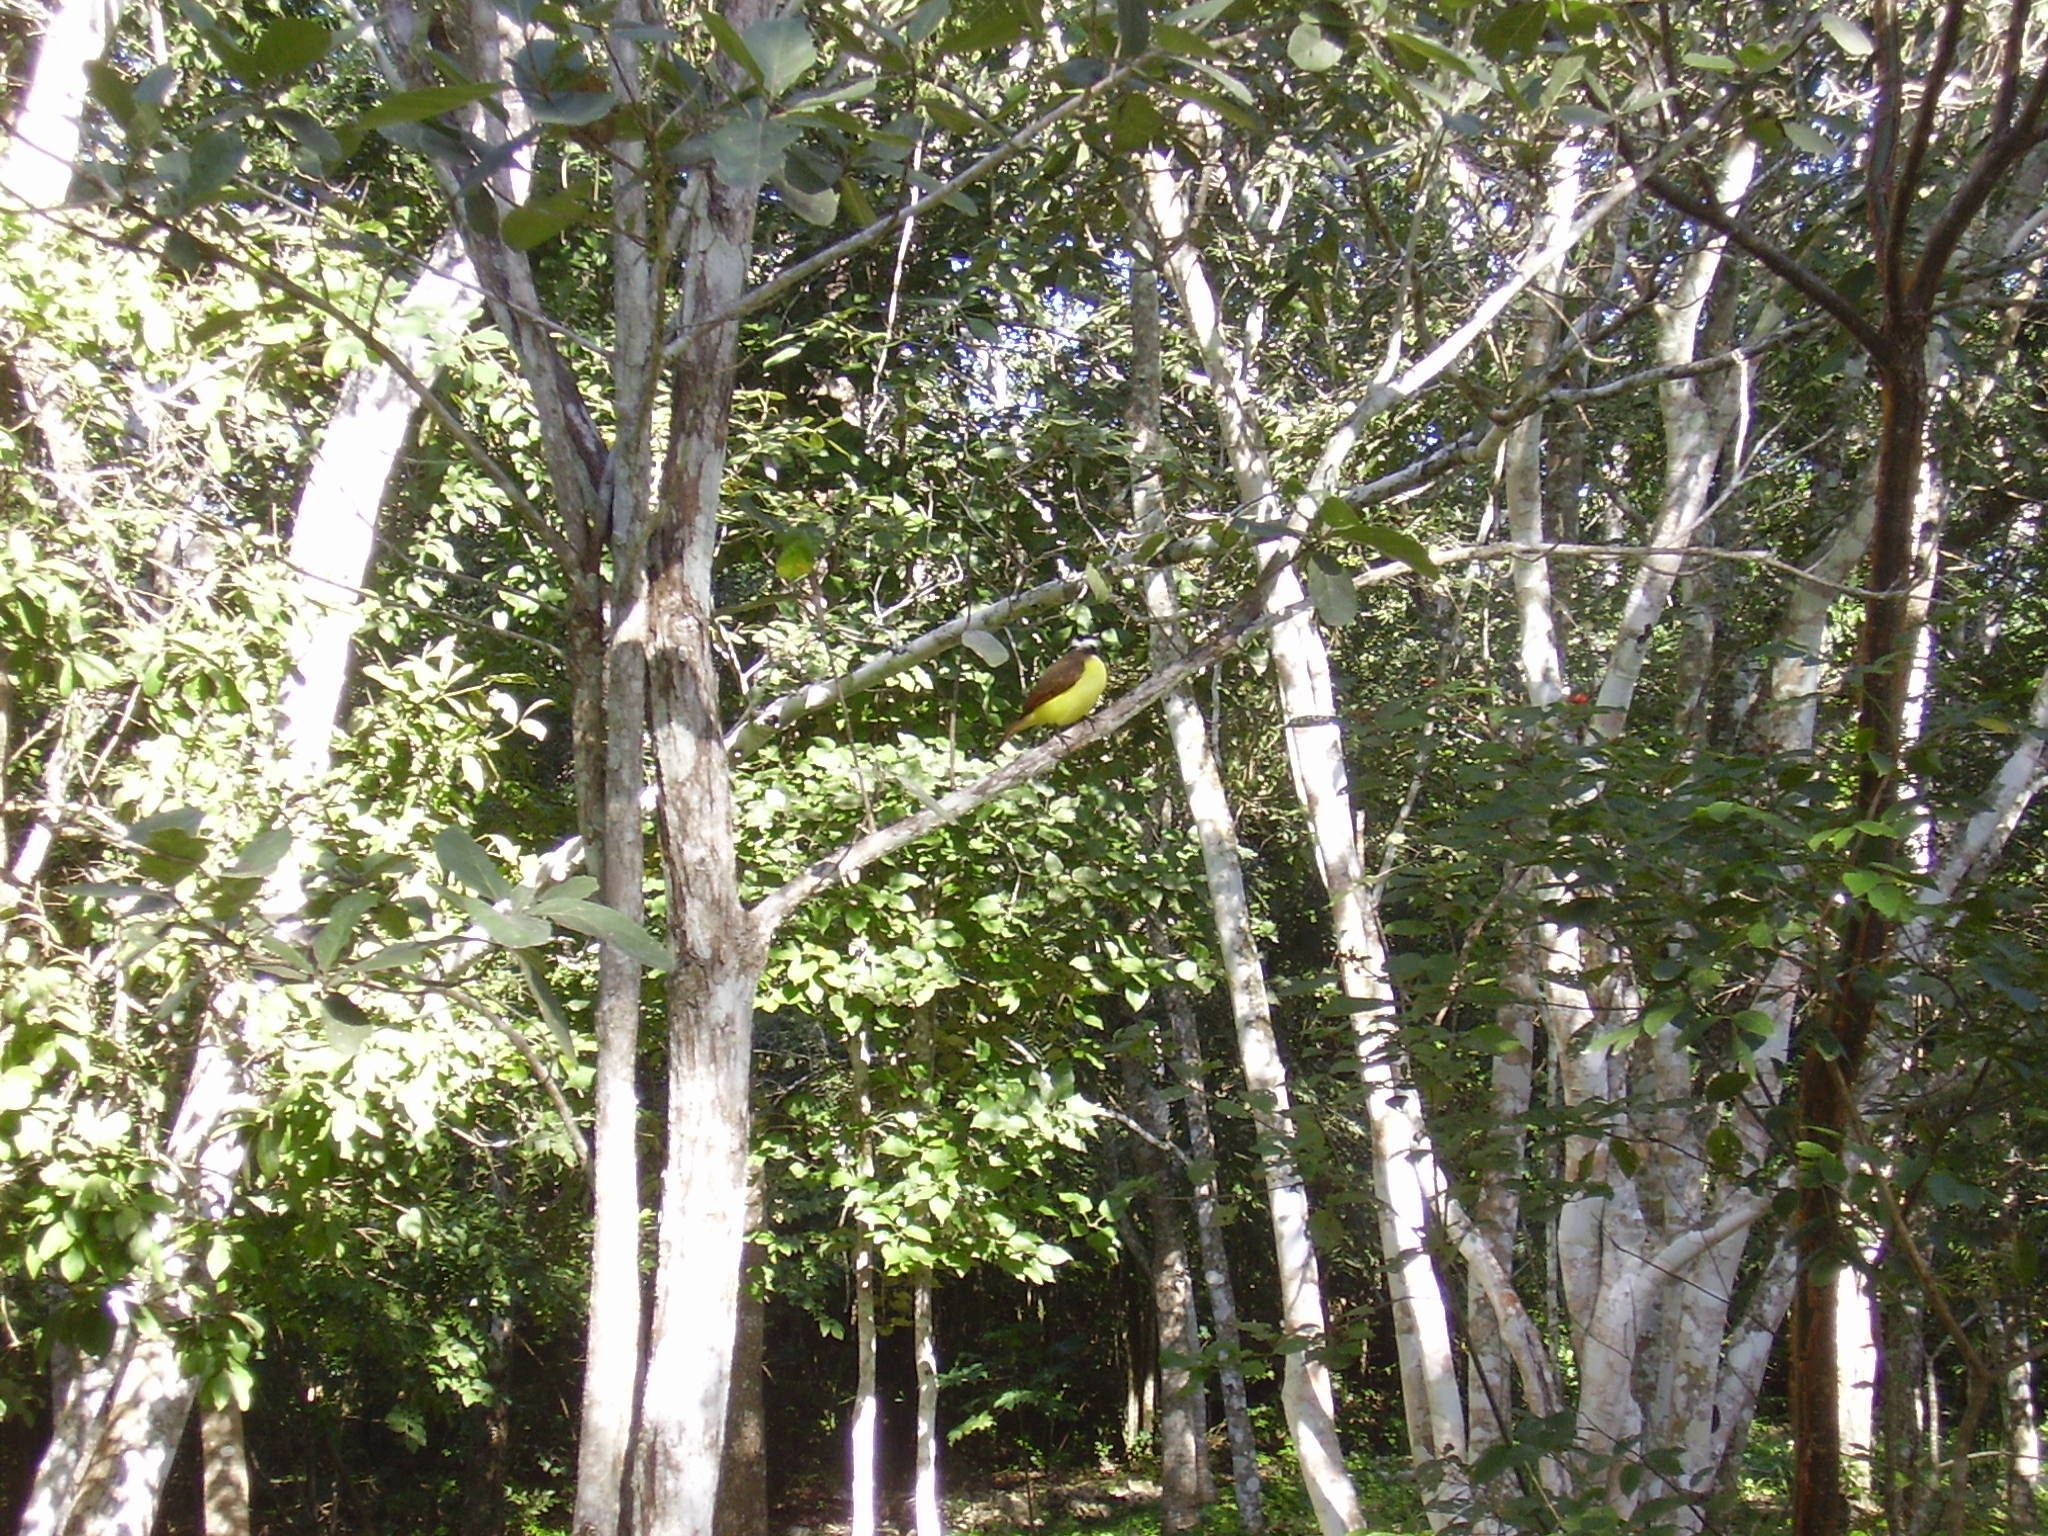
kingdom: Animalia
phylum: Chordata
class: Aves
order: Passeriformes
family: Tyrannidae
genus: Pitangus
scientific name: Pitangus sulphuratus
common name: Great kiskadee
